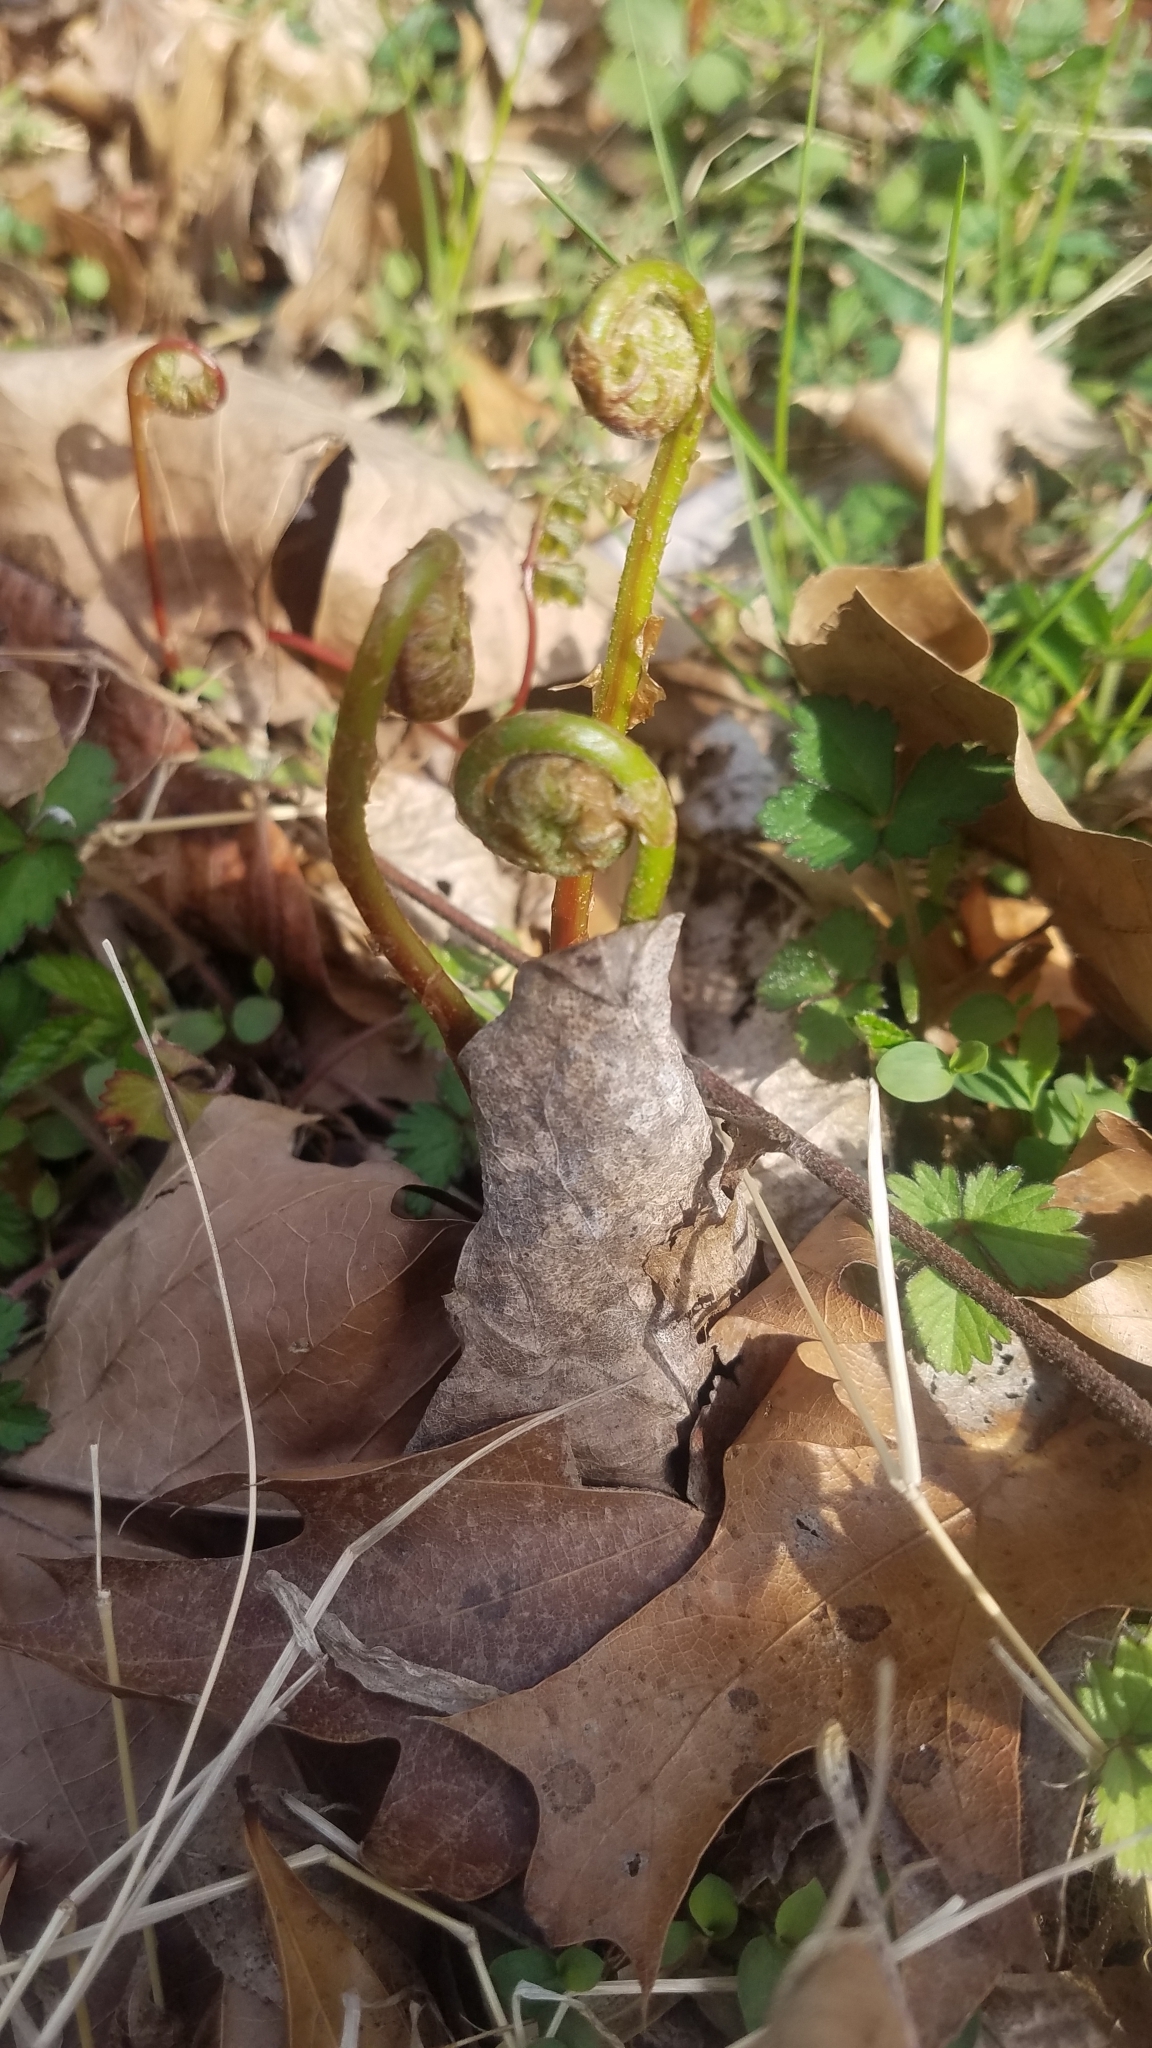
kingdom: Plantae
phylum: Tracheophyta
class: Polypodiopsida
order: Polypodiales
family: Onocleaceae
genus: Onoclea
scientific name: Onoclea sensibilis
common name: Sensitive fern
